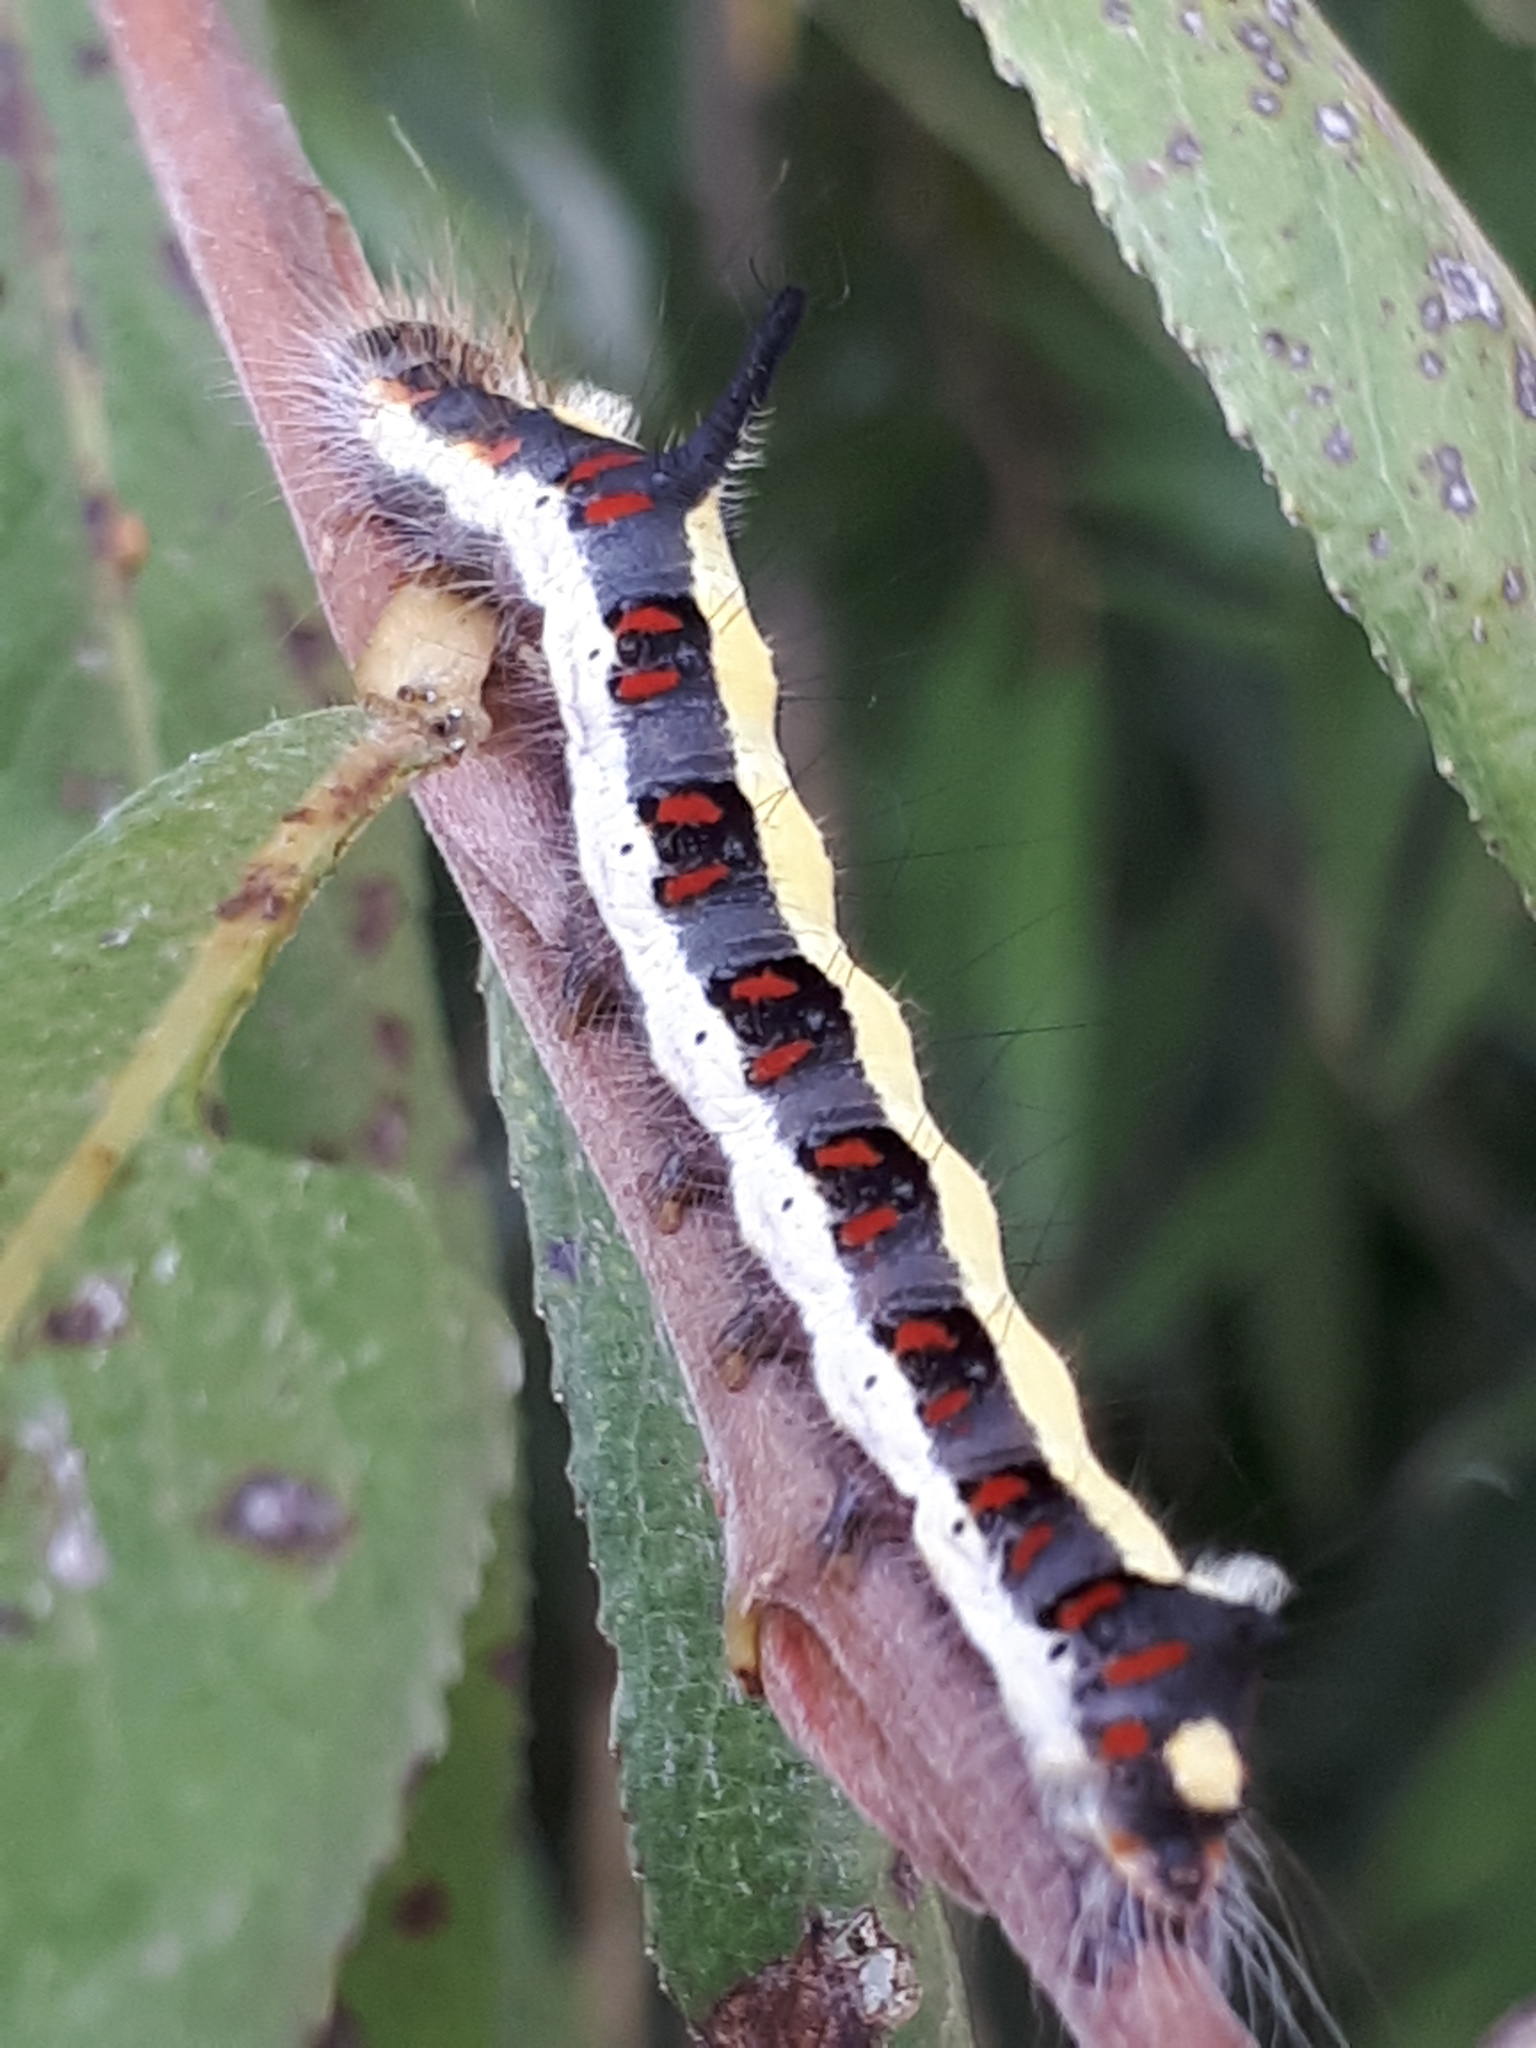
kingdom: Animalia
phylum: Arthropoda
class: Insecta
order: Lepidoptera
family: Noctuidae
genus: Acronicta
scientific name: Acronicta psi
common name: Grey dagger
